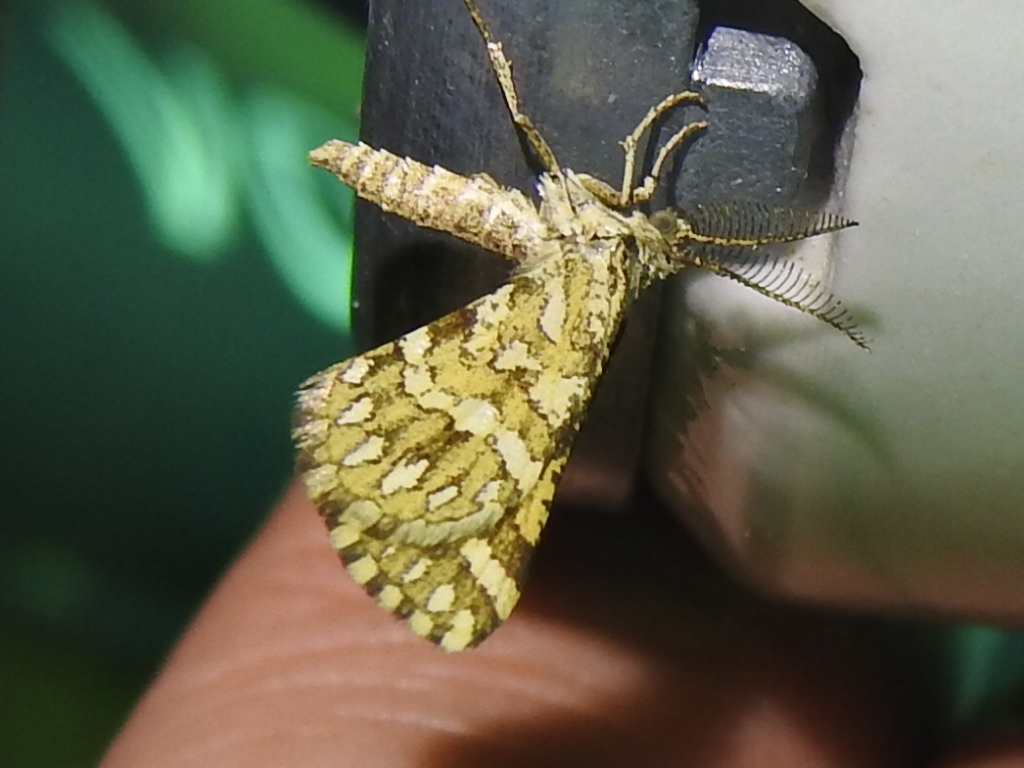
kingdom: Animalia
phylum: Arthropoda
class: Insecta
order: Lepidoptera
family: Geometridae
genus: Narraga
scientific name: Narraga fimetaria
